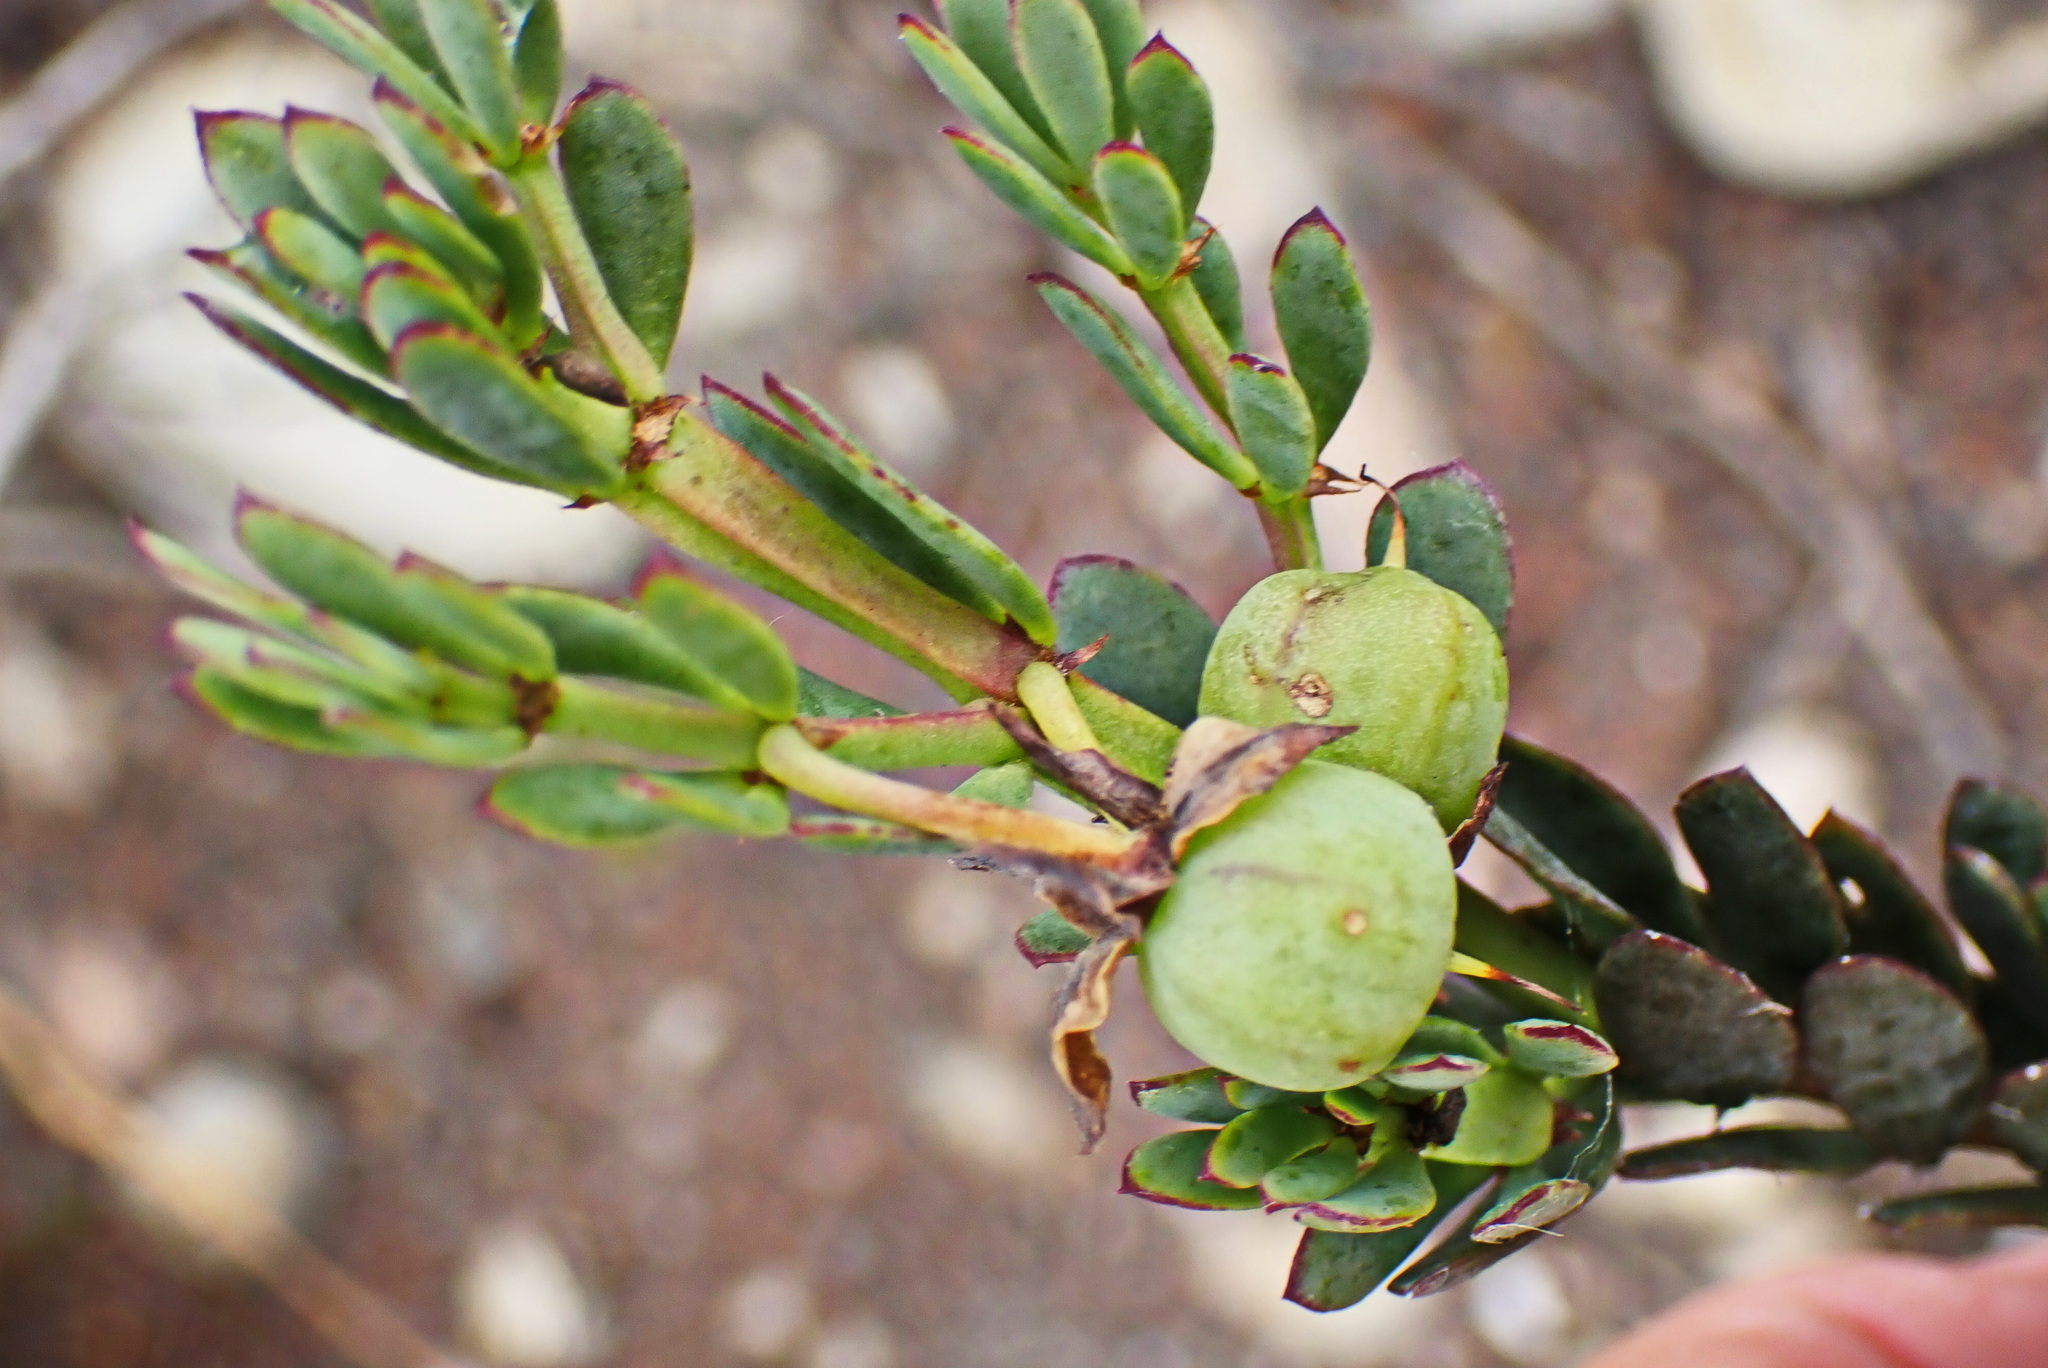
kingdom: Plantae
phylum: Tracheophyta
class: Magnoliopsida
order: Zygophyllales
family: Zygophyllaceae
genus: Roepera
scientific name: Roepera fulva
